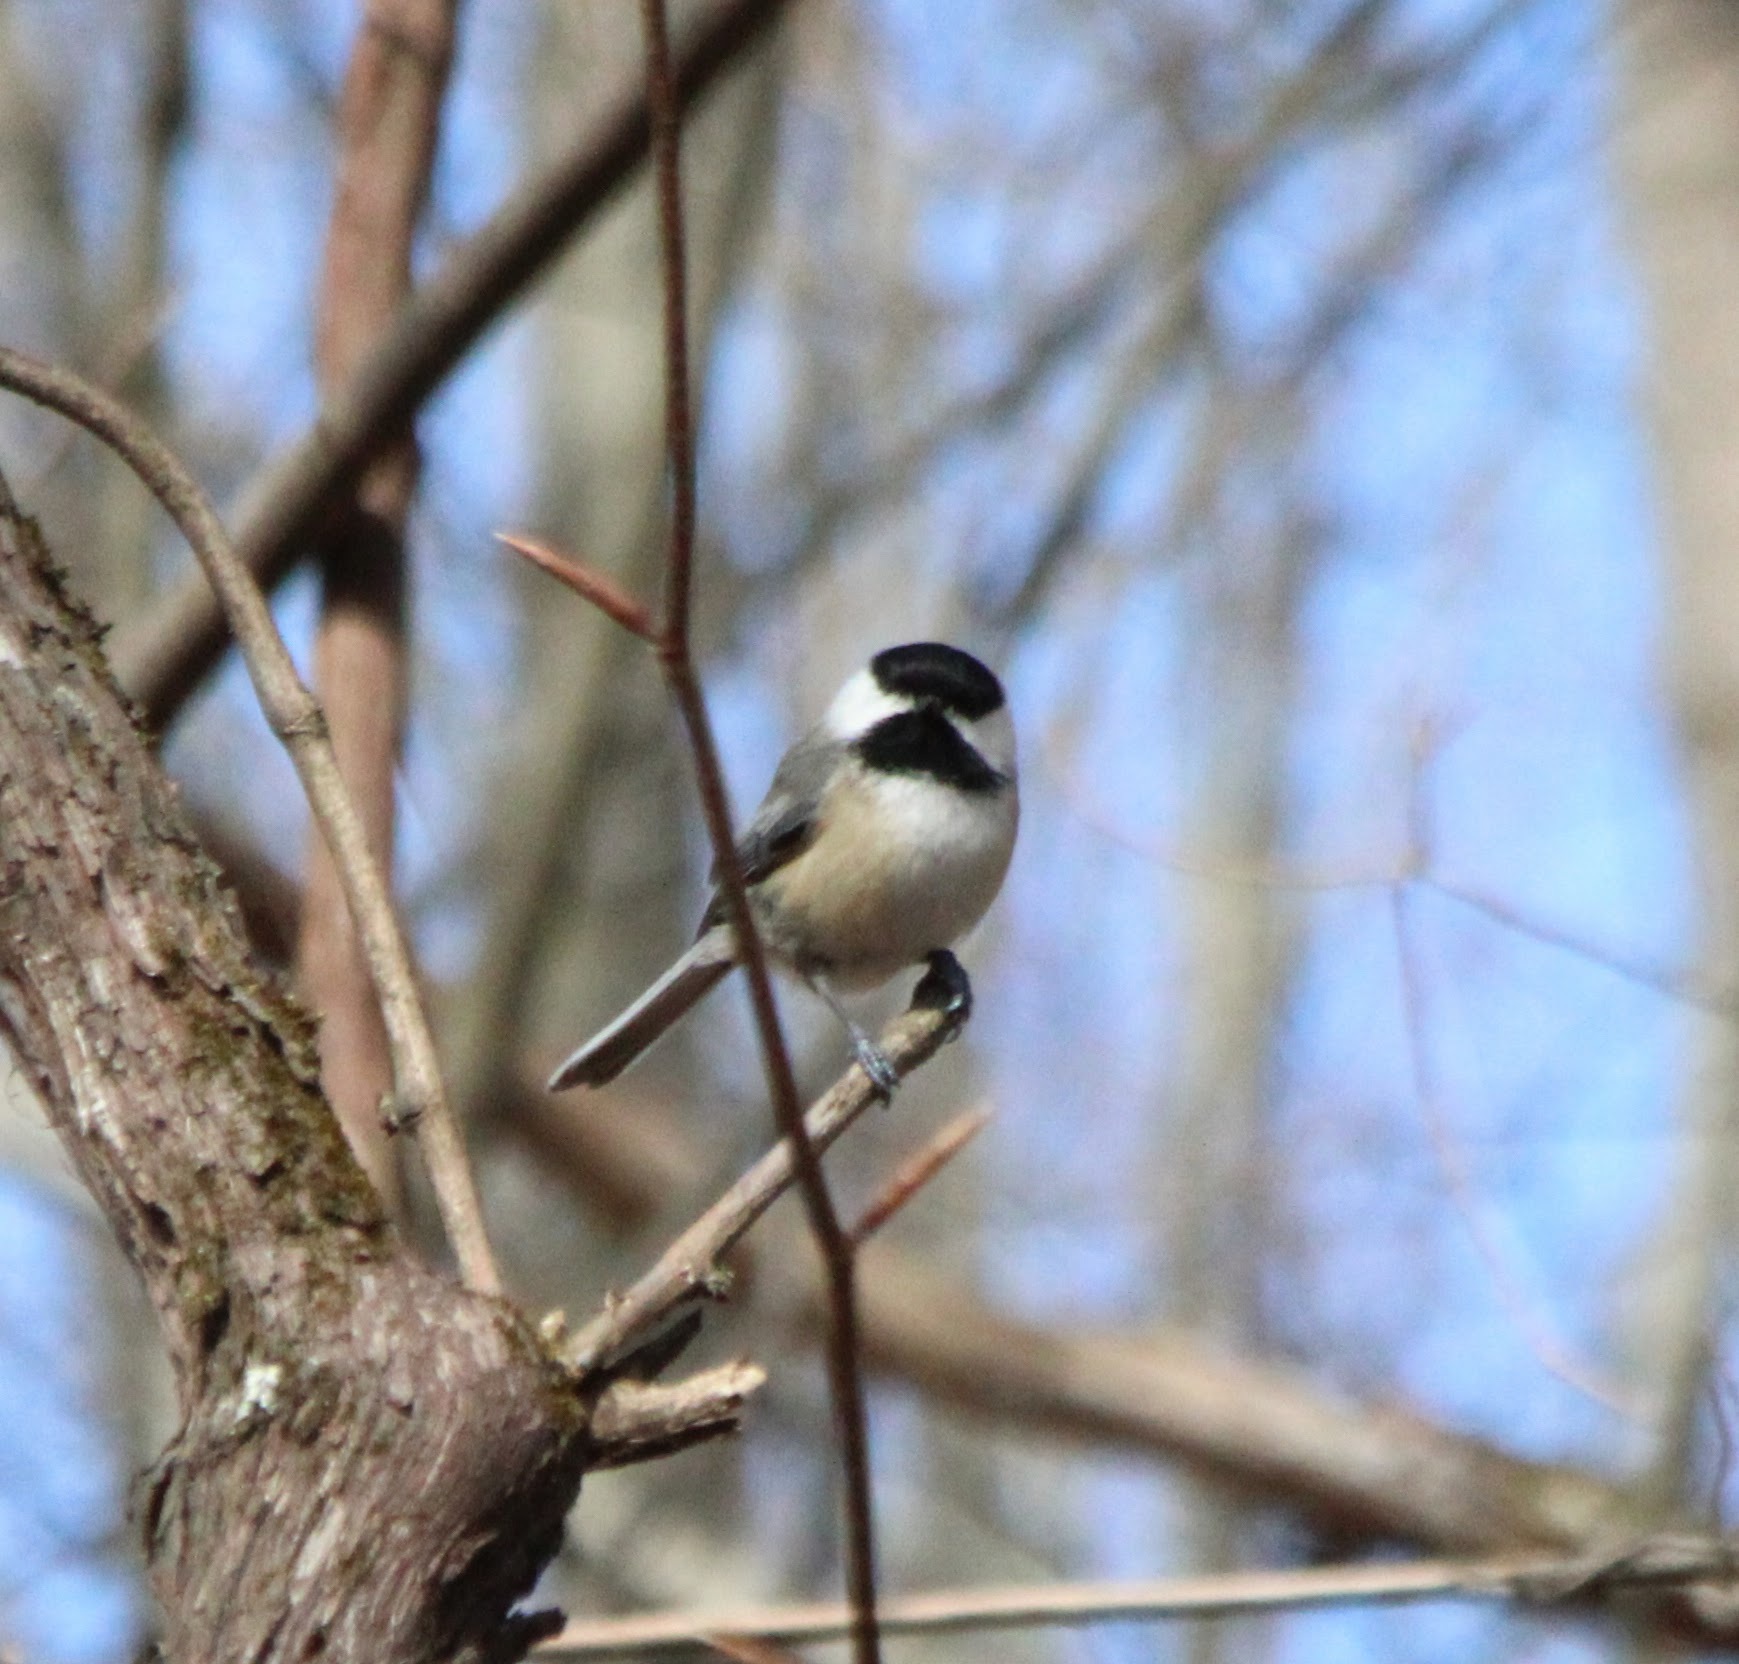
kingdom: Animalia
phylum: Chordata
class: Aves
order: Passeriformes
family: Paridae
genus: Poecile
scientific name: Poecile atricapillus
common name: Black-capped chickadee
